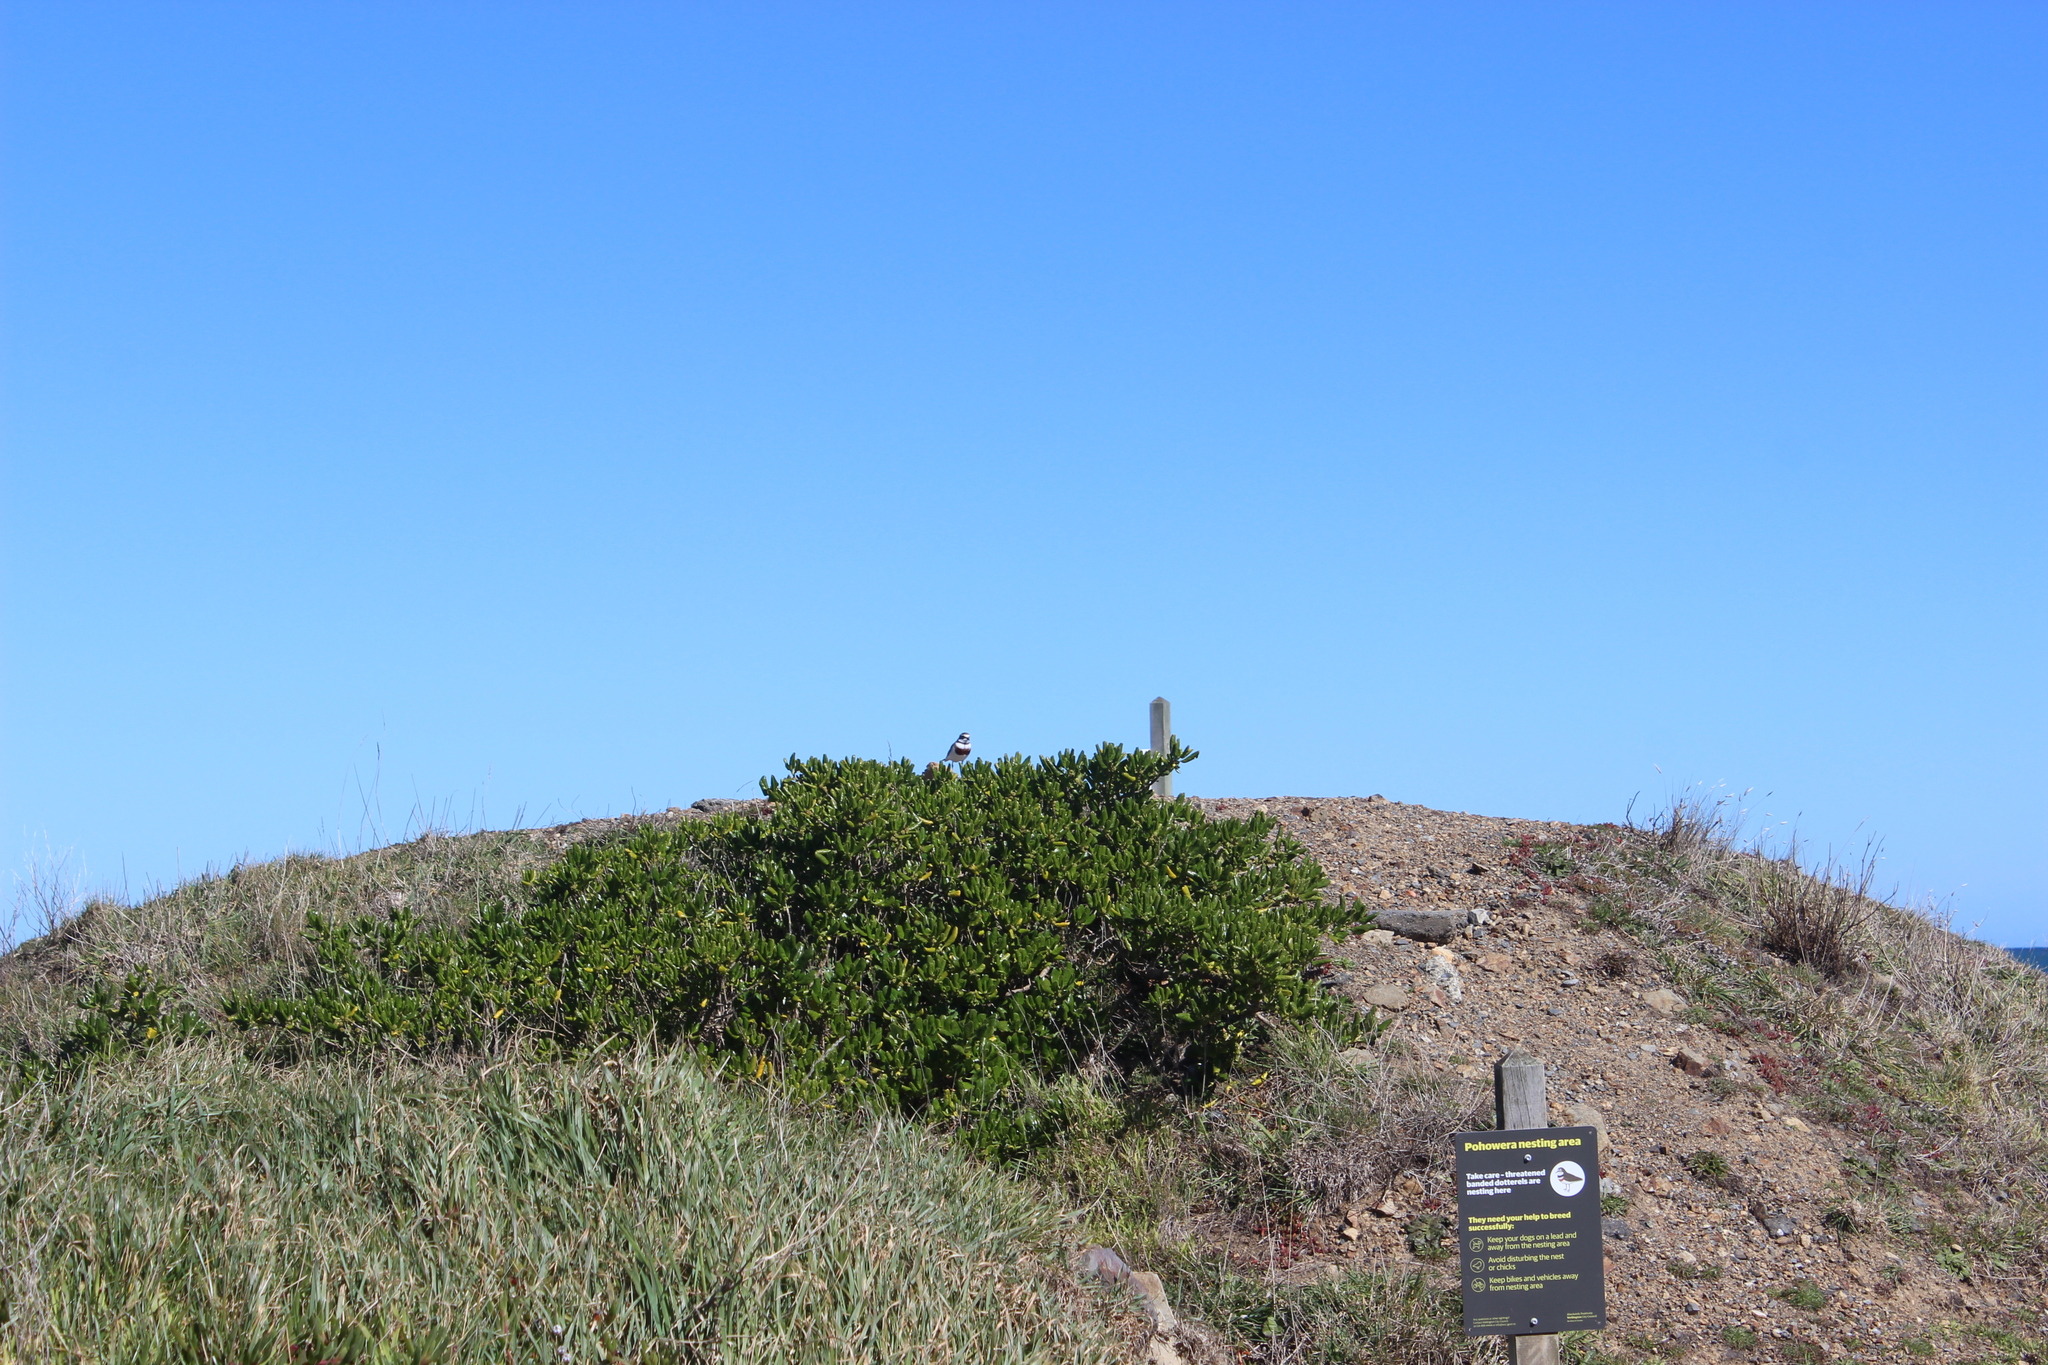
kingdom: Animalia
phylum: Chordata
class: Aves
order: Charadriiformes
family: Charadriidae
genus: Anarhynchus
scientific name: Anarhynchus
